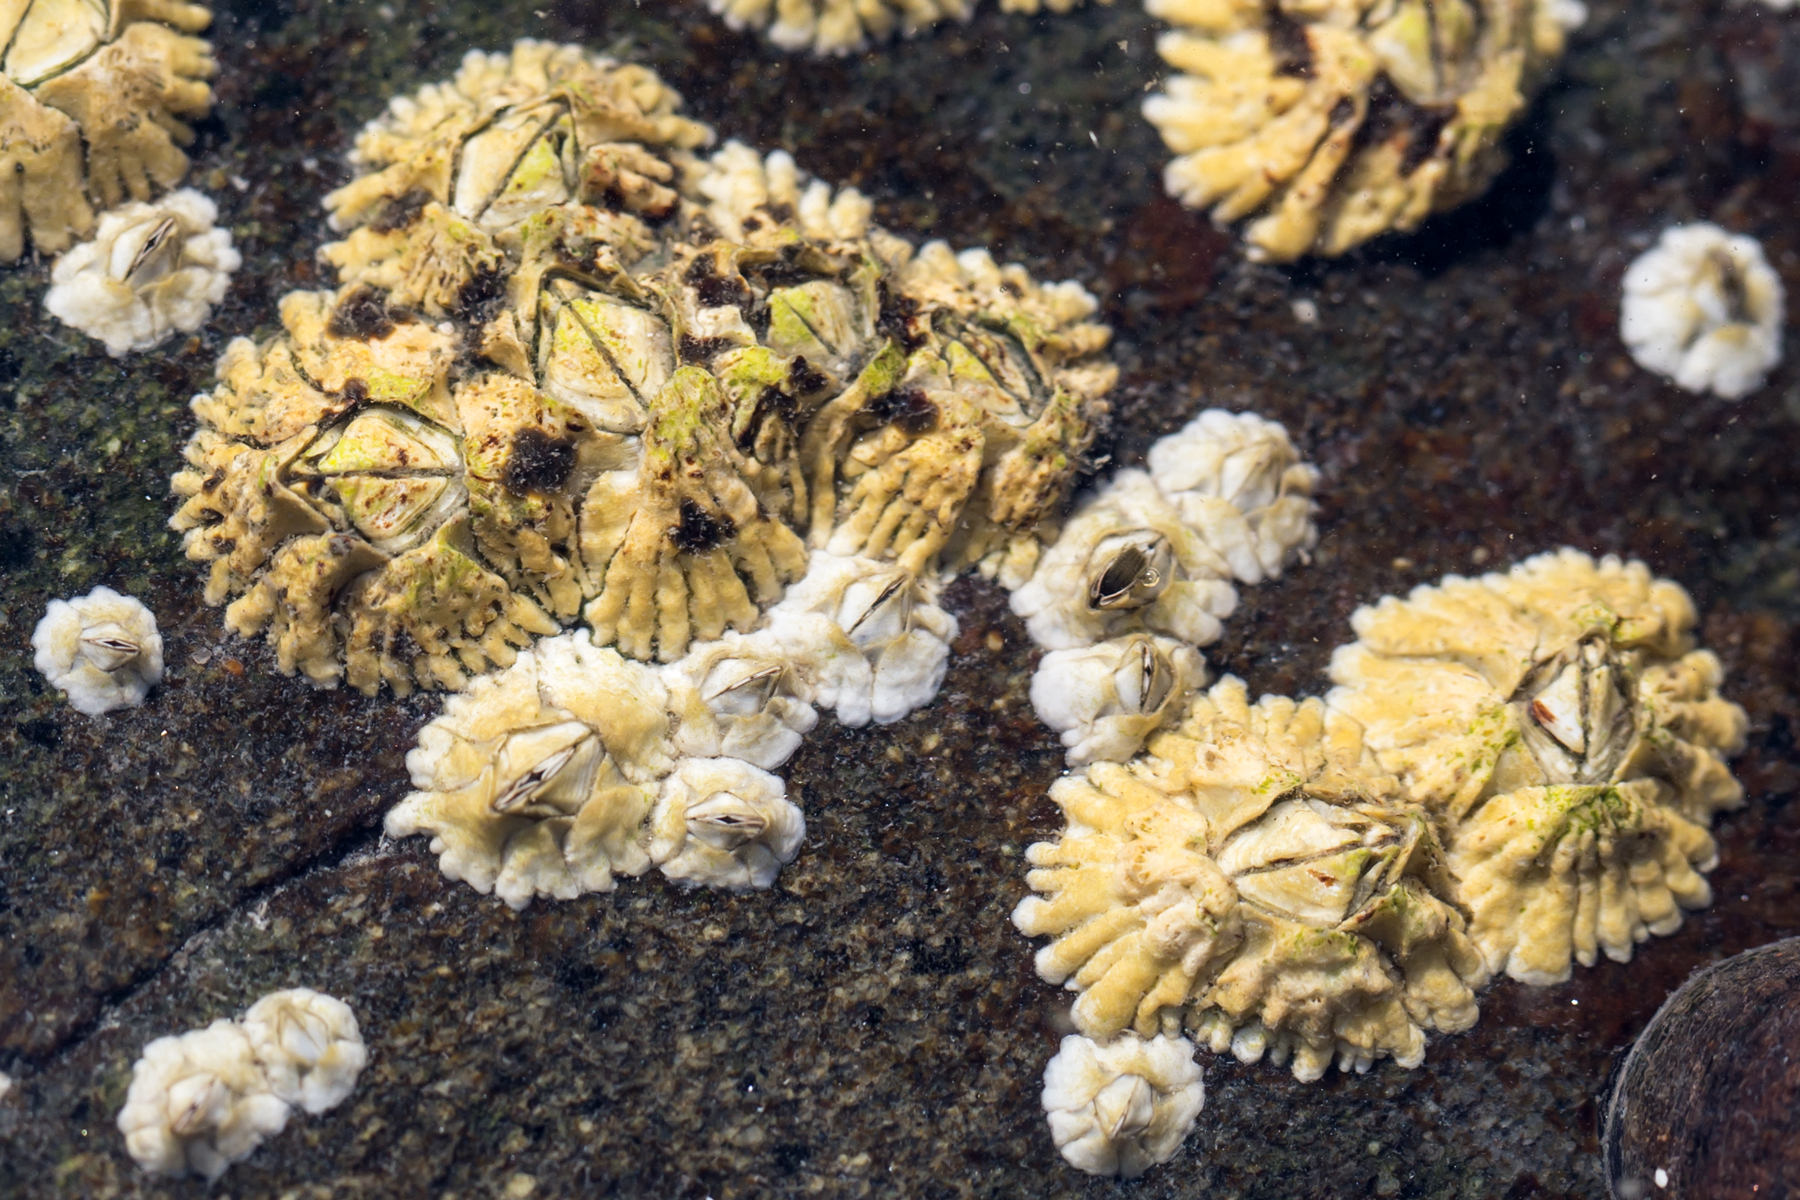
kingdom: Animalia
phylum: Arthropoda
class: Maxillopoda
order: Sessilia
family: Archaeobalanidae
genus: Semibalanus
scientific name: Semibalanus balanoides
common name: Acorn barnacle
